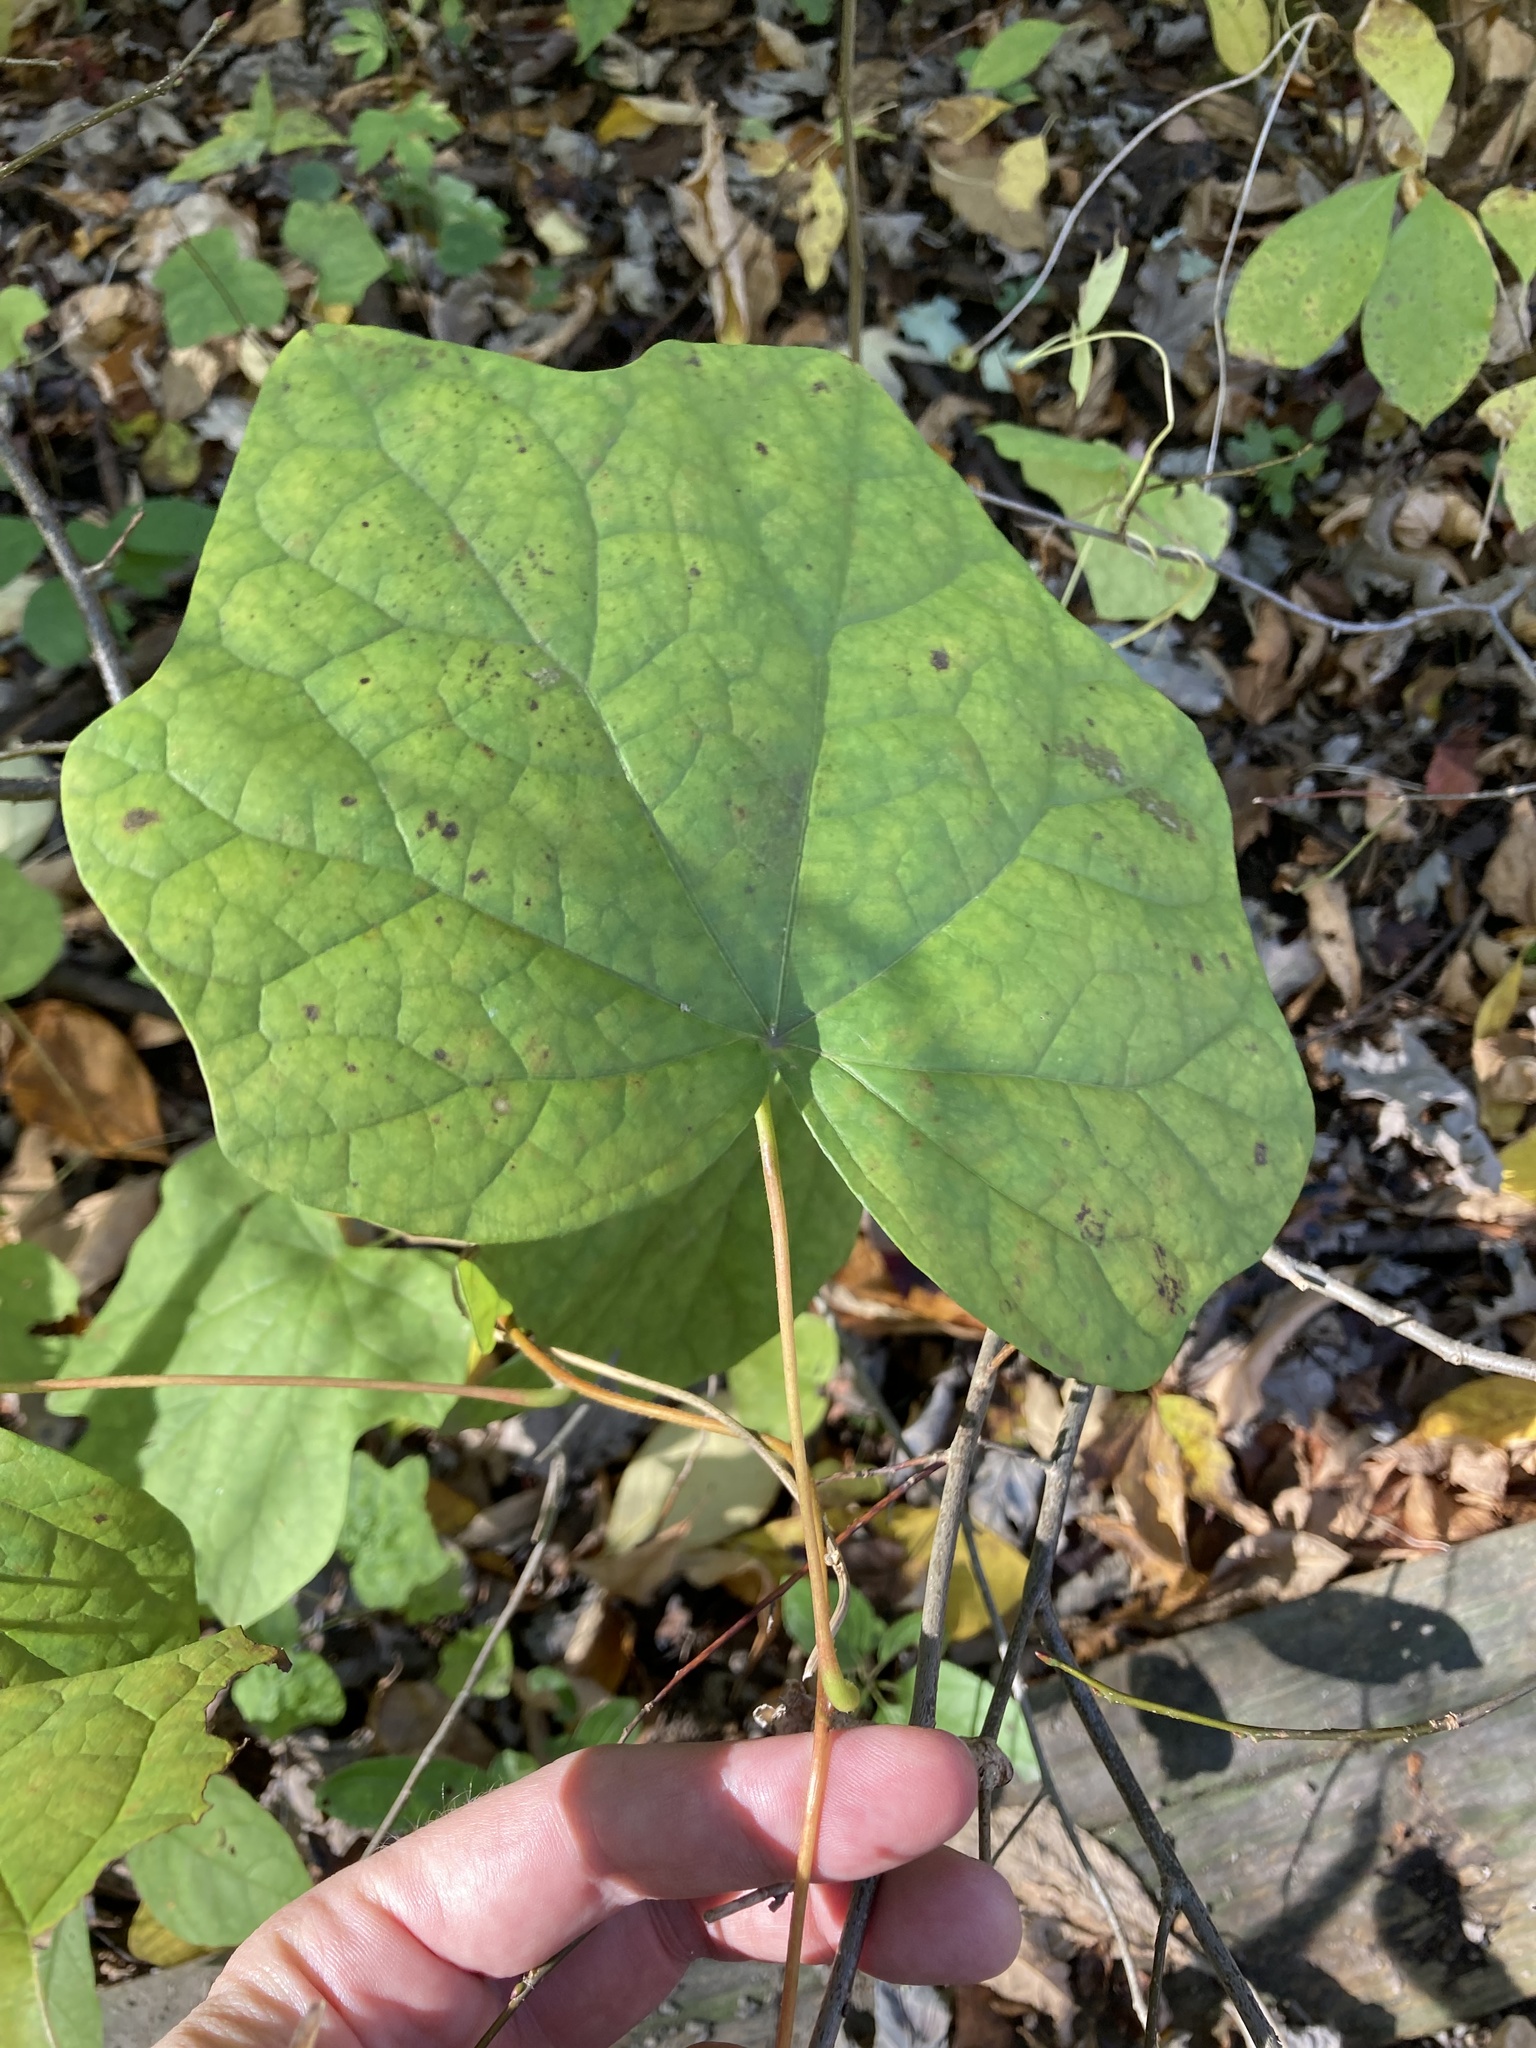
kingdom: Plantae
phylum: Tracheophyta
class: Magnoliopsida
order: Ranunculales
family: Menispermaceae
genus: Menispermum
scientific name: Menispermum canadense
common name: Moonseed
